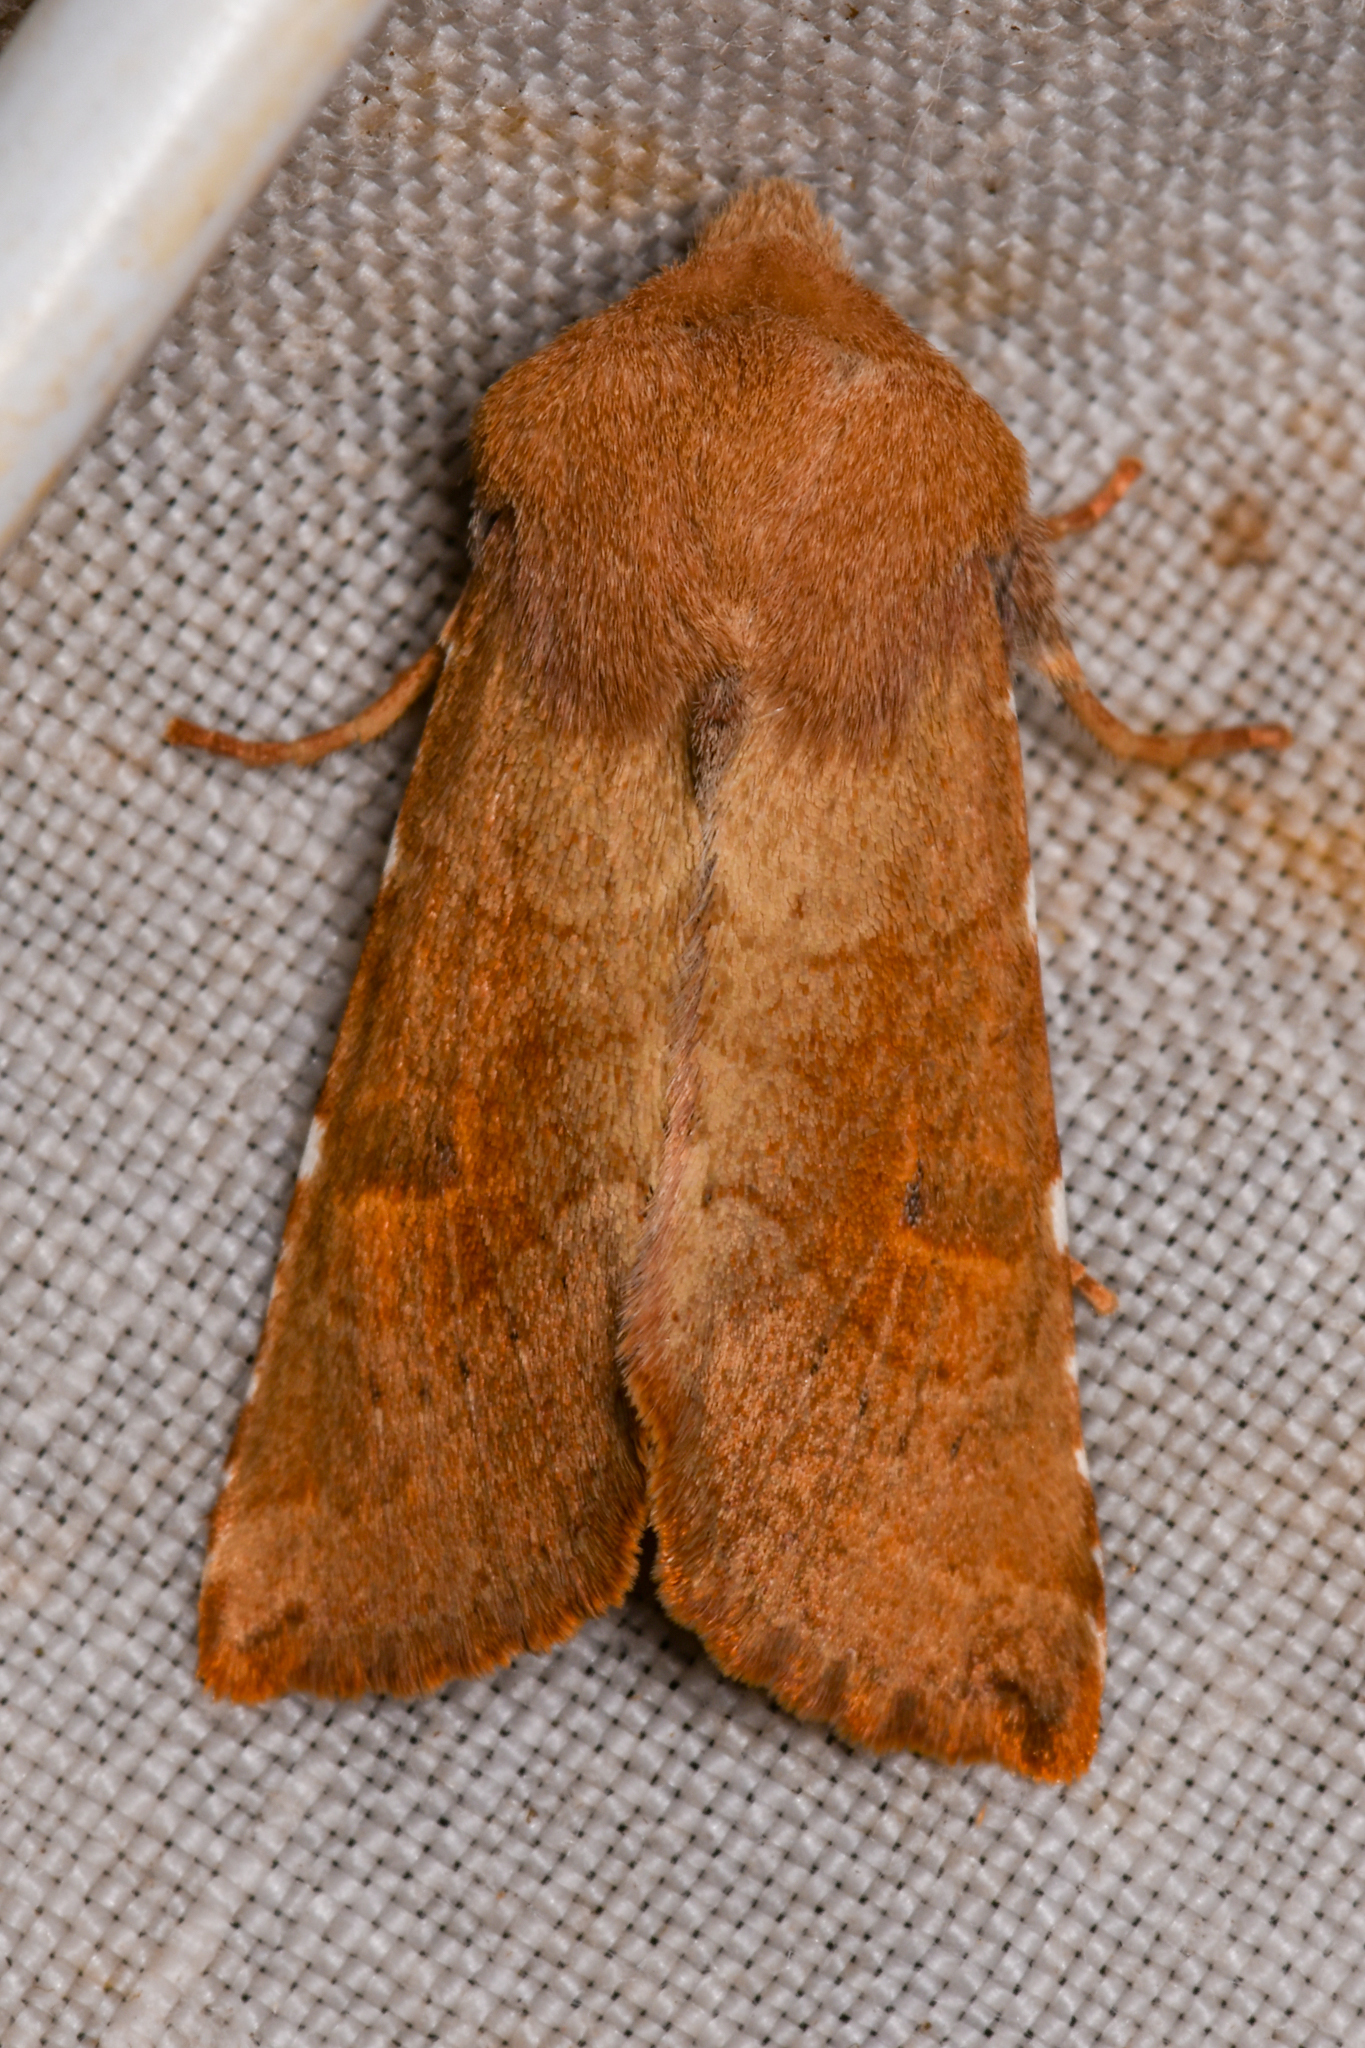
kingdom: Animalia
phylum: Arthropoda
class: Insecta
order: Lepidoptera
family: Noctuidae
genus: Orthosia
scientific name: Orthosia ferrigera
